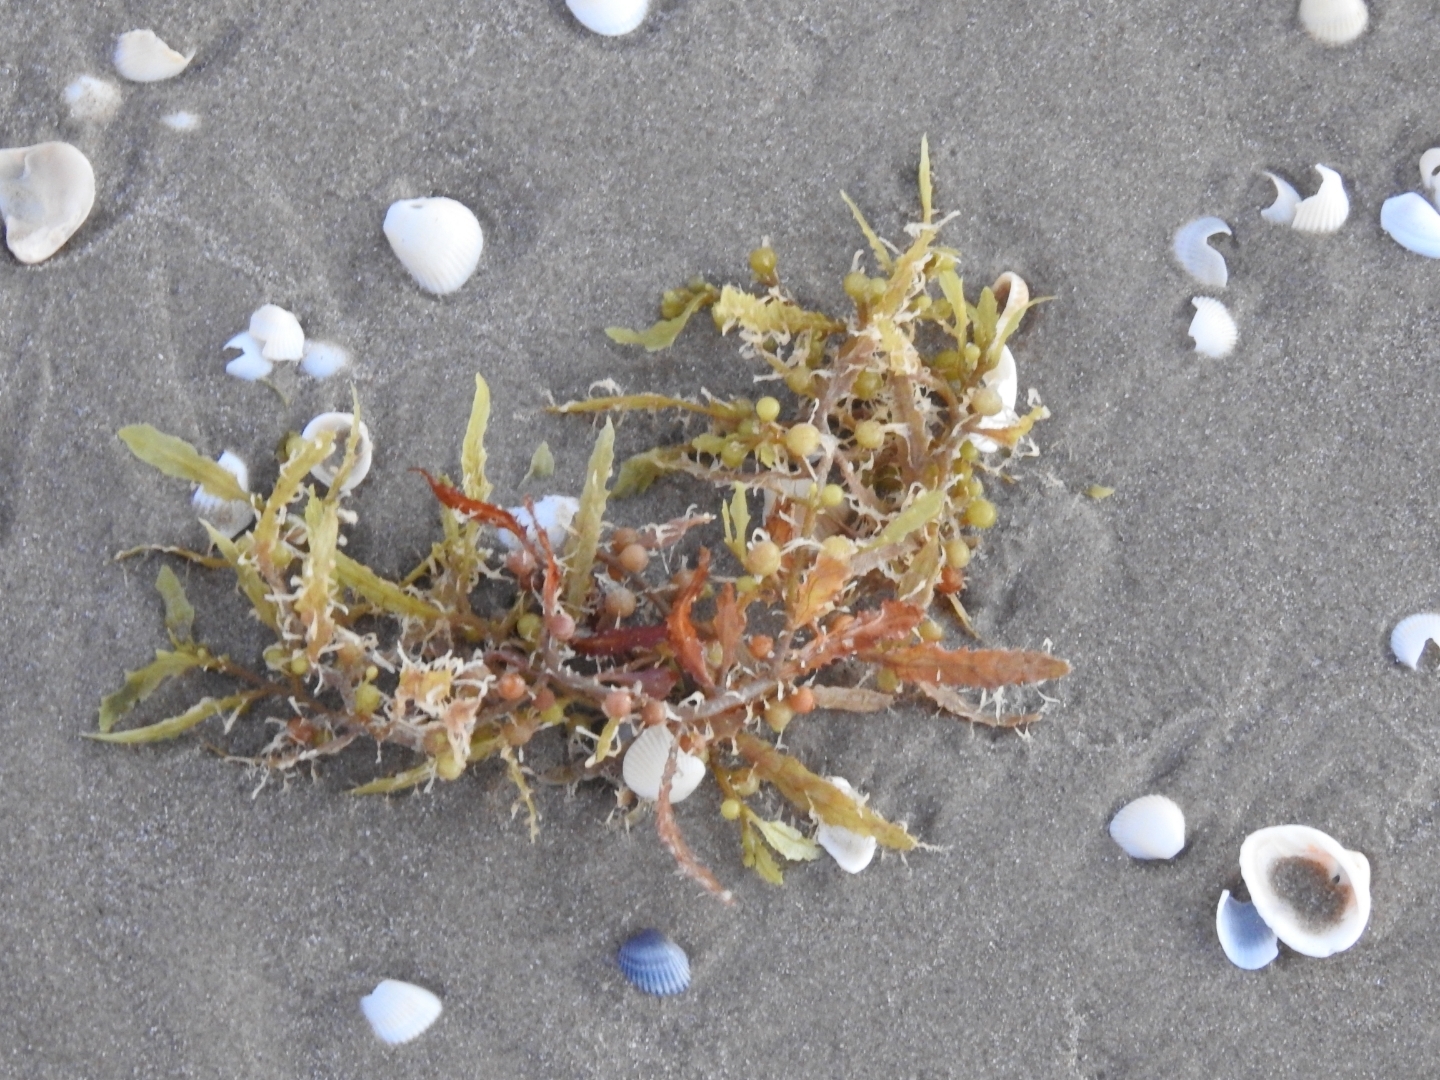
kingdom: Chromista
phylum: Ochrophyta
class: Phaeophyceae
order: Fucales
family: Sargassaceae
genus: Sargassum
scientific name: Sargassum fluitans
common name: Sargassum seaweed
